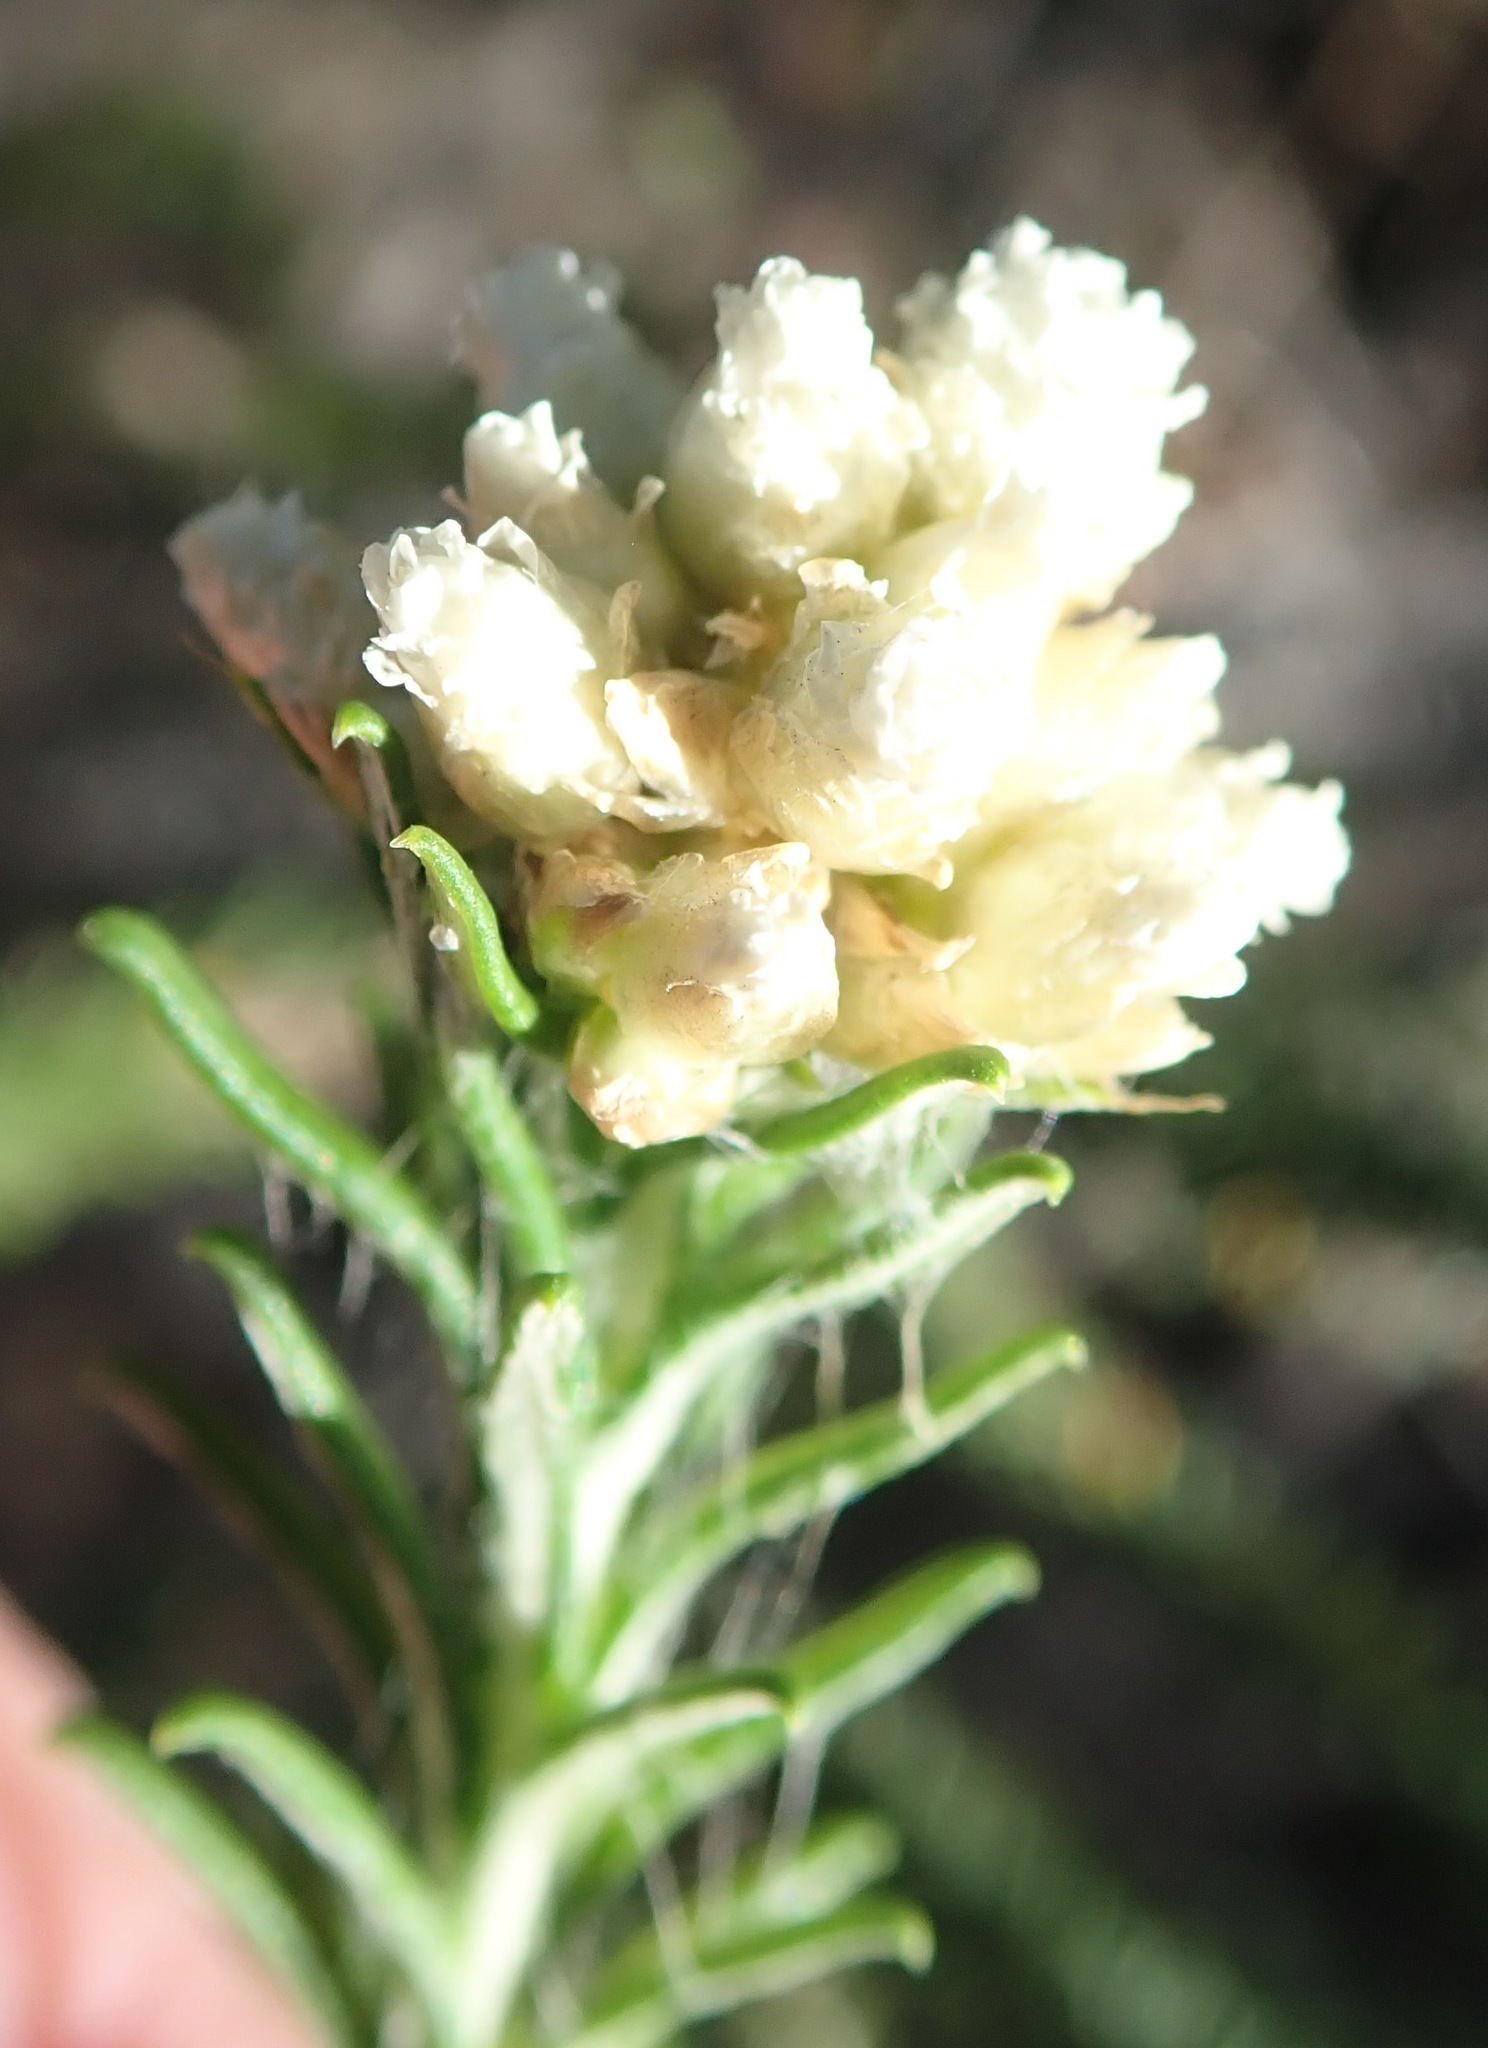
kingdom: Plantae
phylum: Tracheophyta
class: Magnoliopsida
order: Asterales
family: Asteraceae
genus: Helichrysum
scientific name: Helichrysum teretifolium
